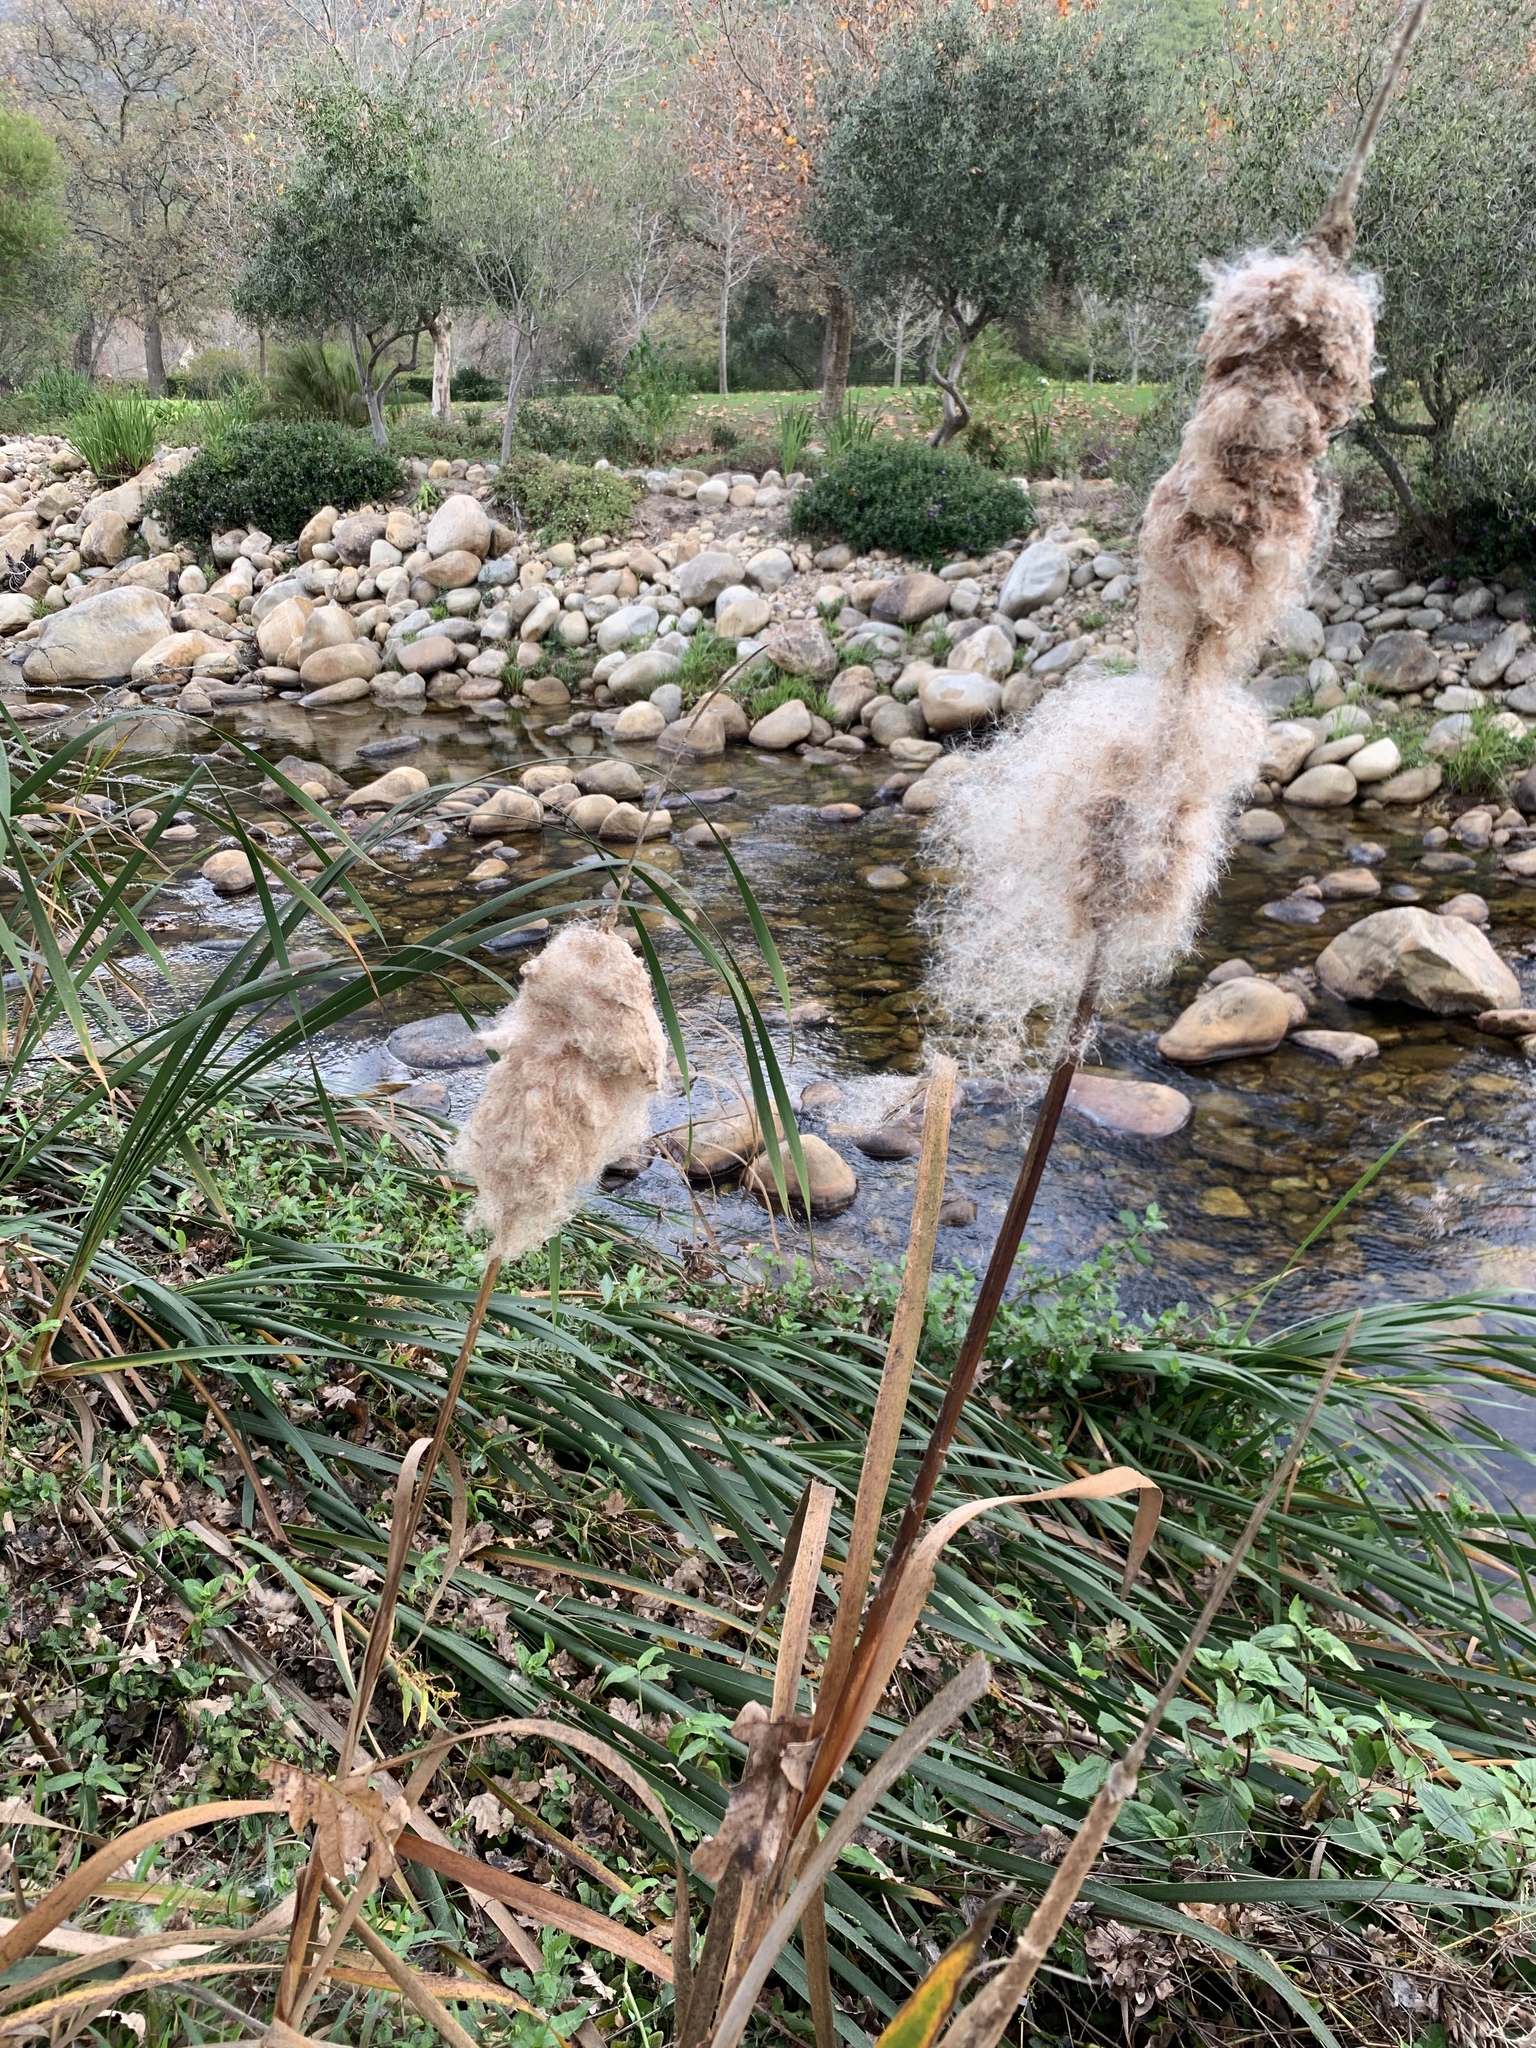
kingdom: Plantae
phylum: Tracheophyta
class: Liliopsida
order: Poales
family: Typhaceae
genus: Typha
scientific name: Typha capensis
